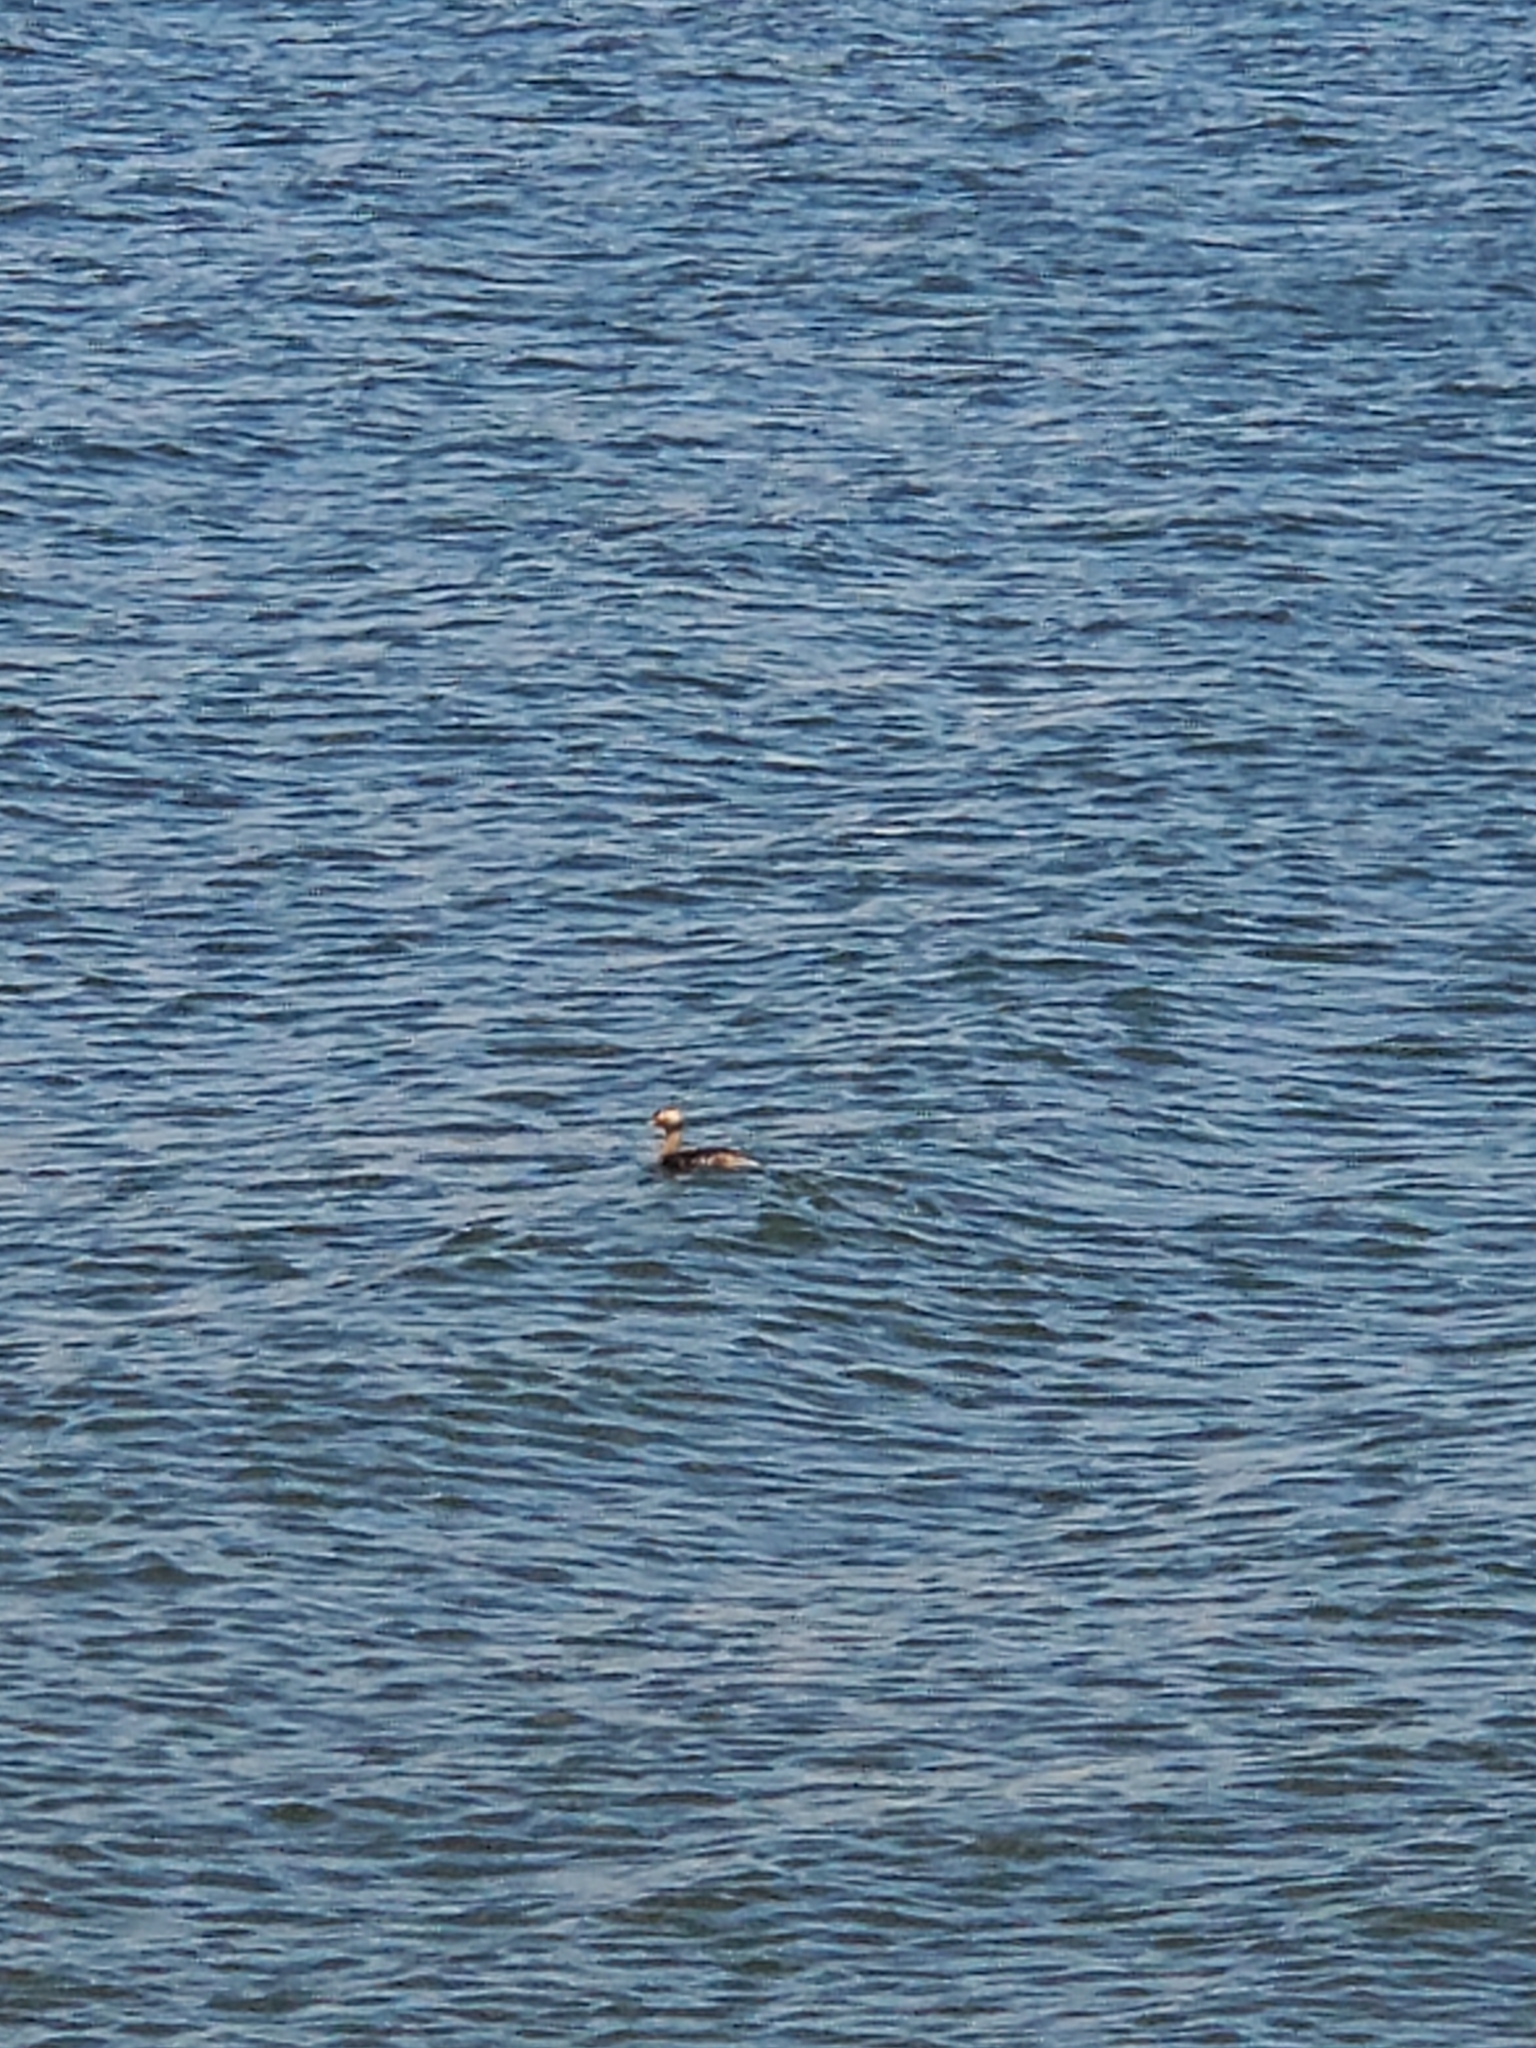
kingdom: Animalia
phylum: Chordata
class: Aves
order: Podicipediformes
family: Podicipedidae
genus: Podiceps
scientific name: Podiceps auritus
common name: Horned grebe
